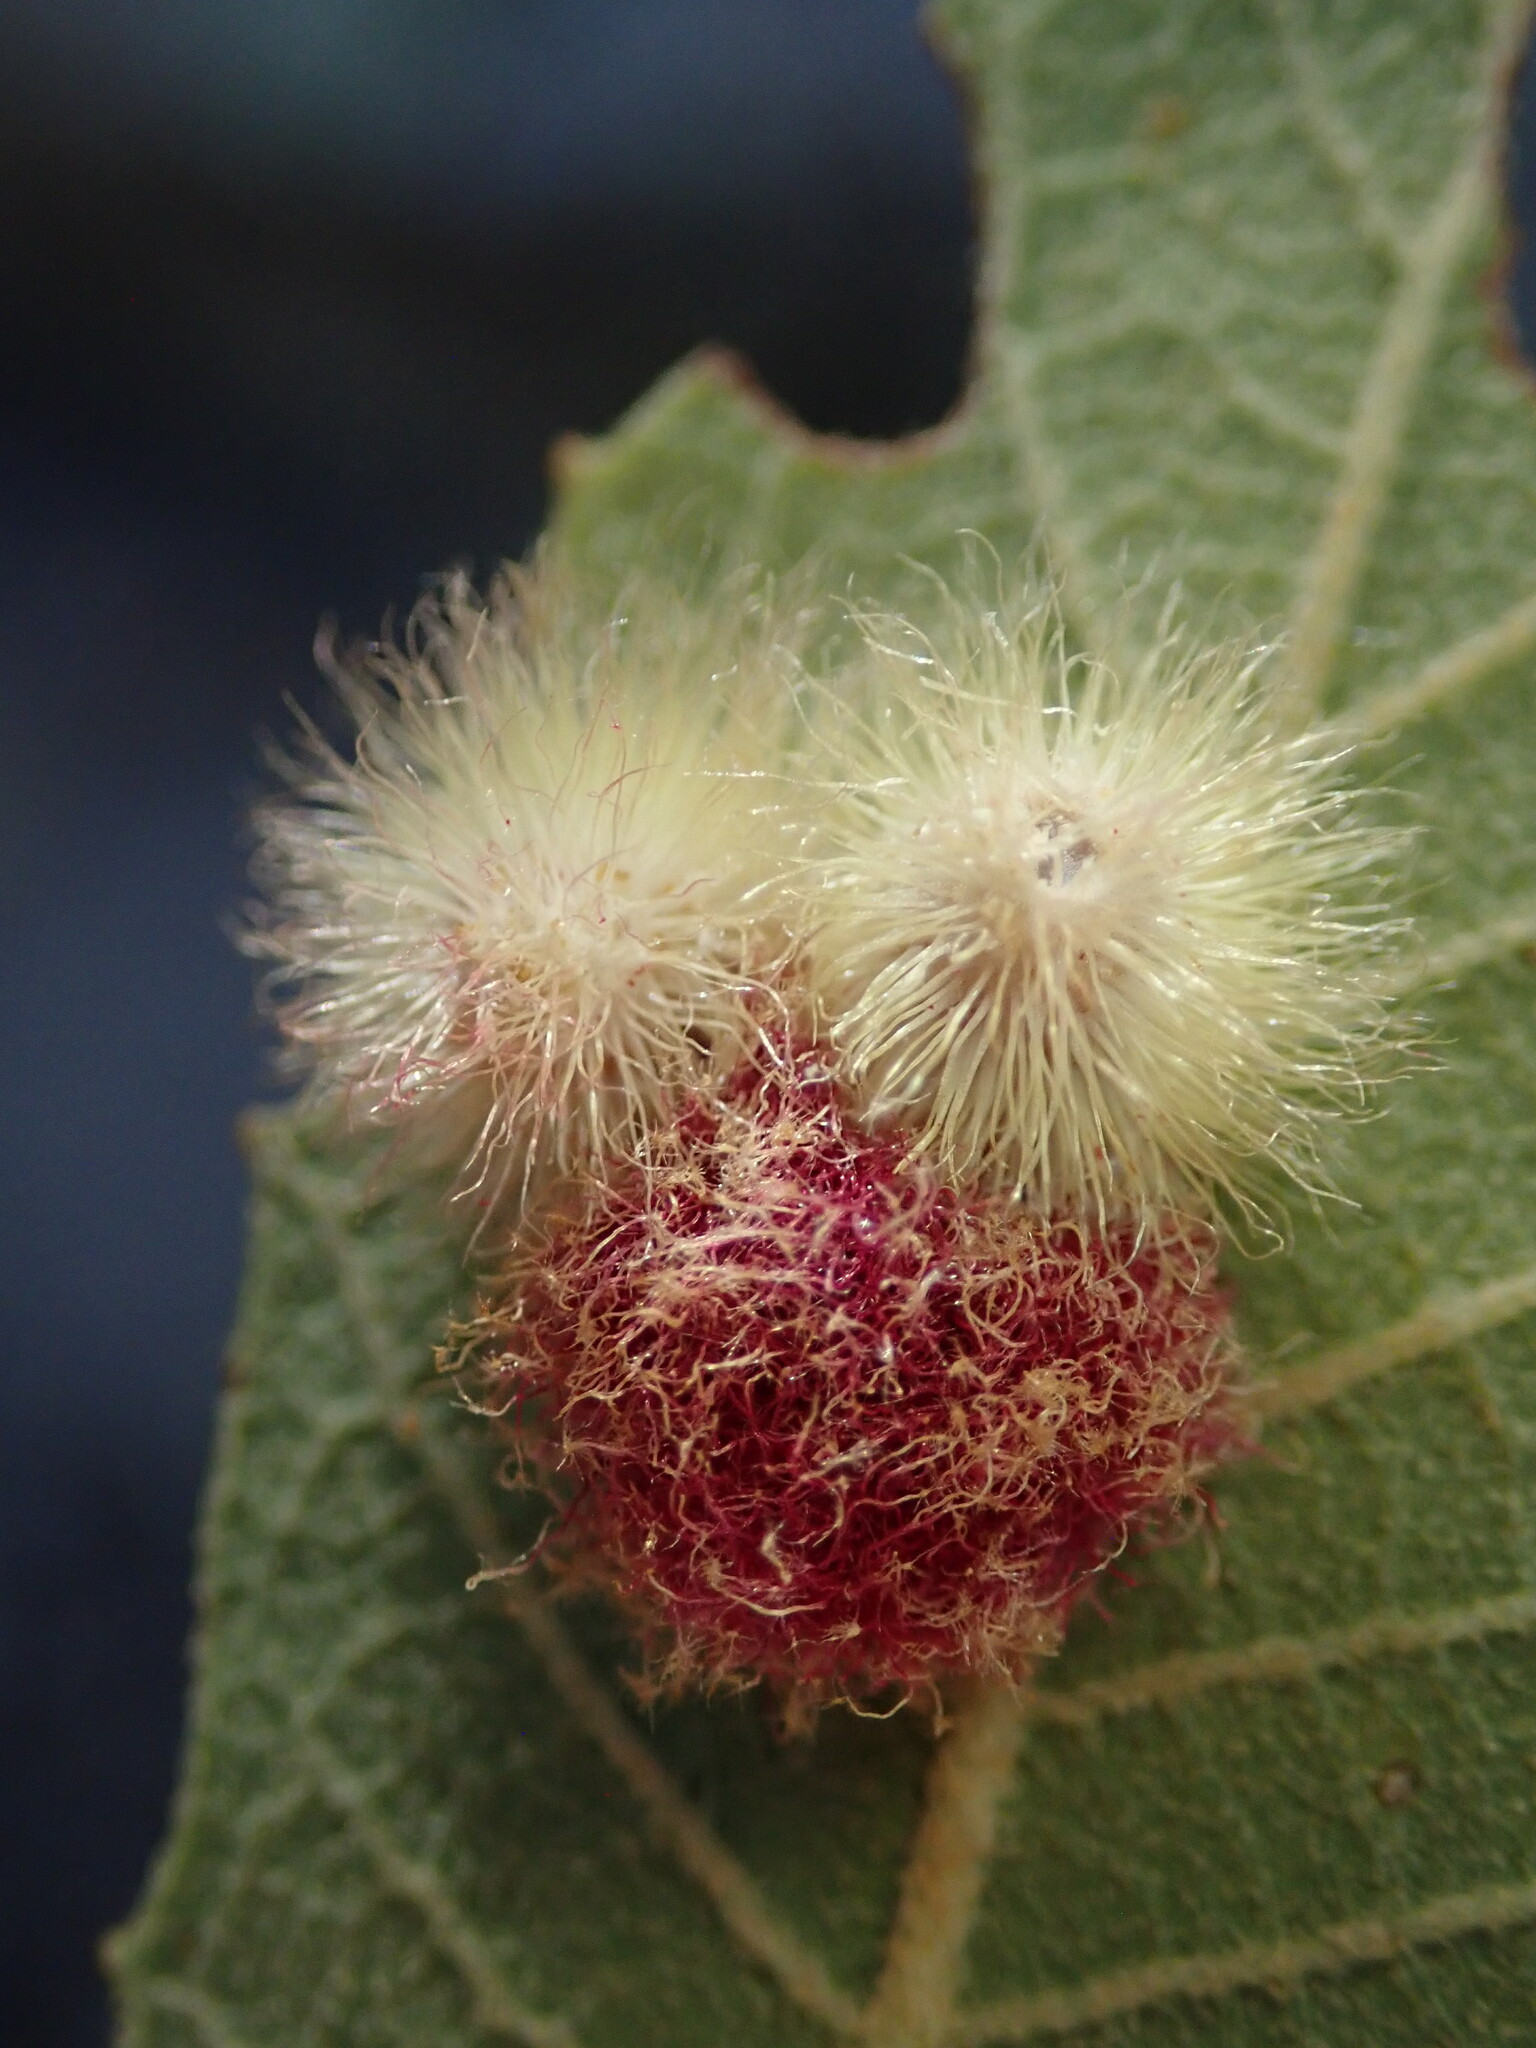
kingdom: Animalia
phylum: Arthropoda
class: Insecta
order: Hymenoptera
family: Cynipidae
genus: Andricus
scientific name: Andricus
